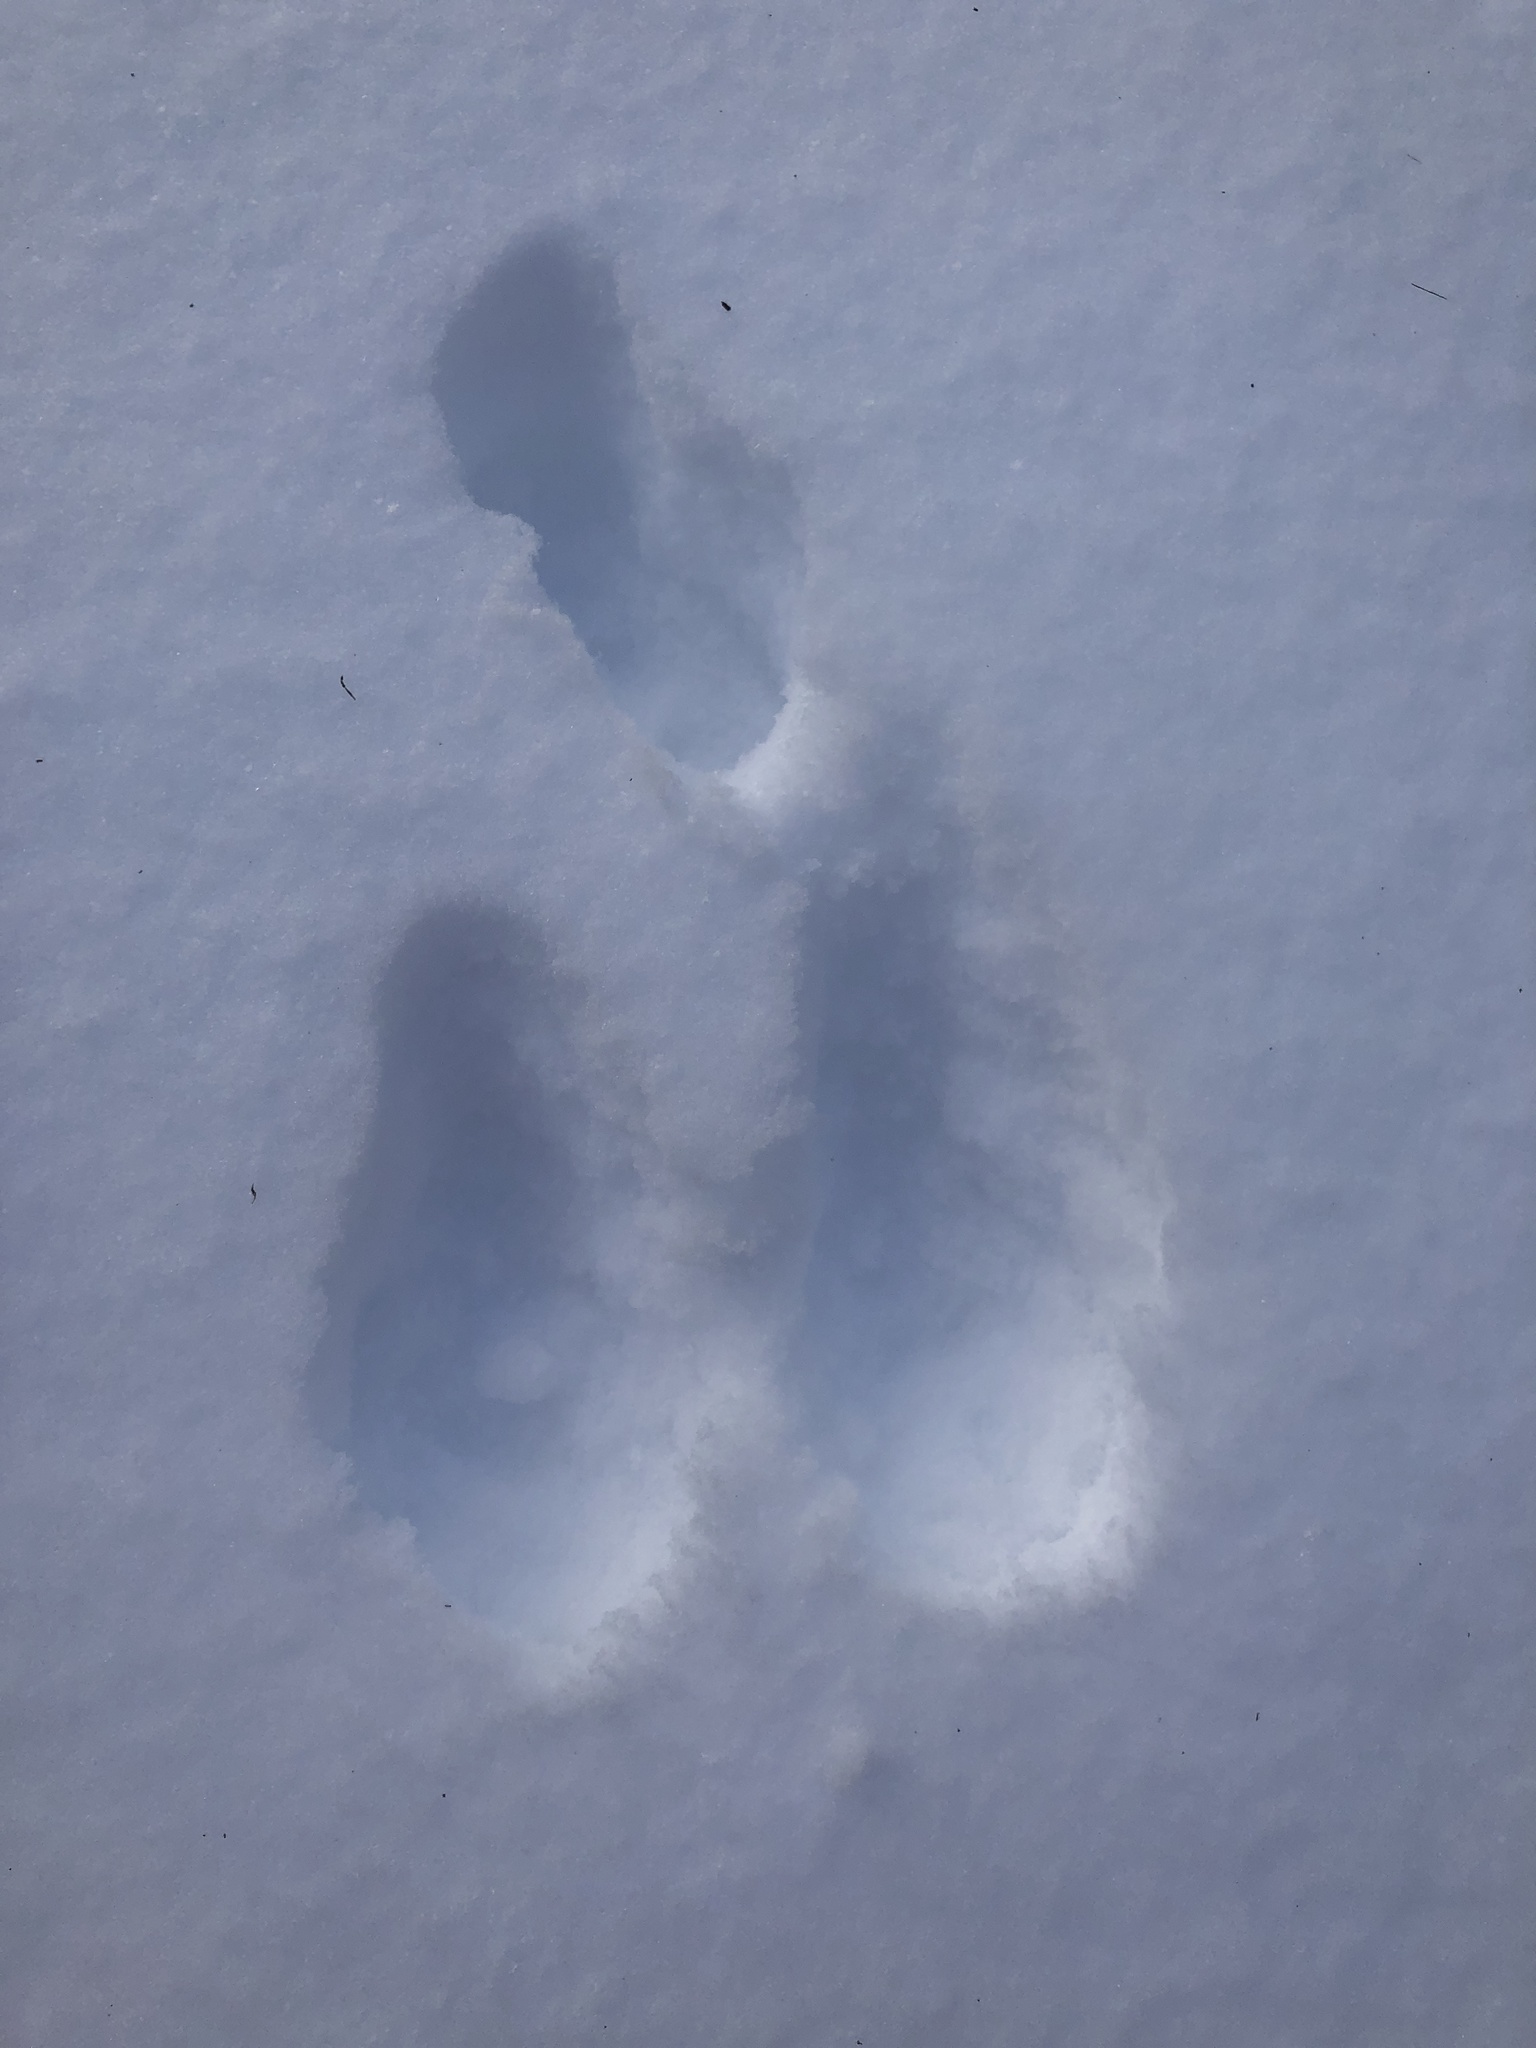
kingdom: Animalia
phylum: Chordata
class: Mammalia
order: Lagomorpha
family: Leporidae
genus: Lepus
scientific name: Lepus americanus
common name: Snowshoe hare
